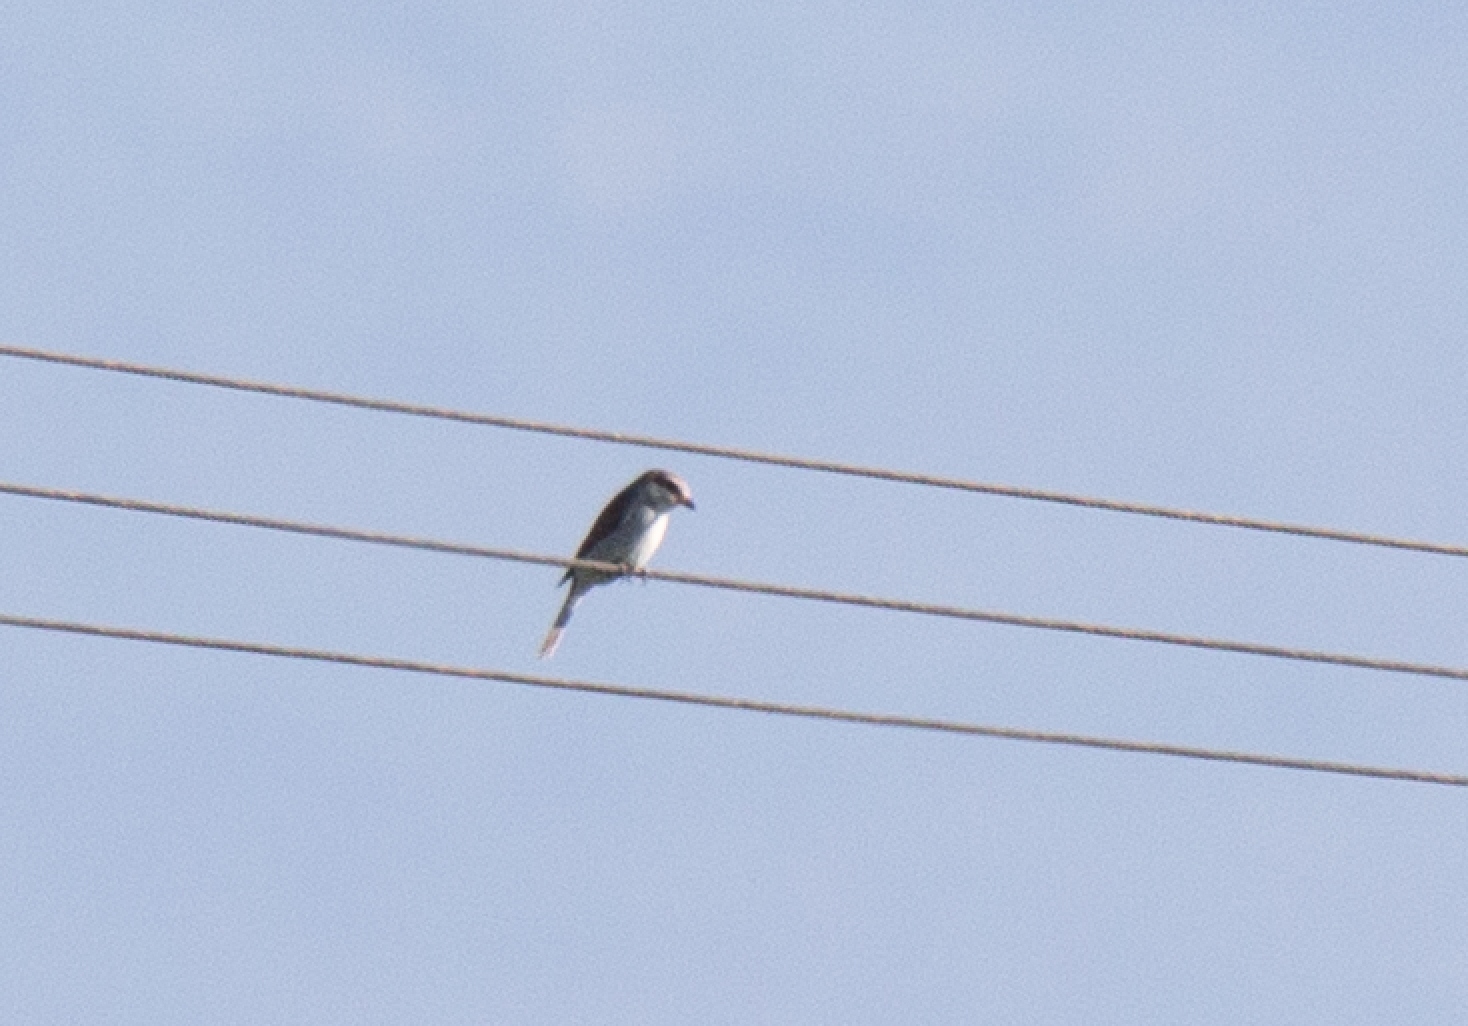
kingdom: Animalia
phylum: Chordata
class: Aves
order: Passeriformes
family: Laniidae
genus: Lanius
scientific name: Lanius collurio
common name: Red-backed shrike
